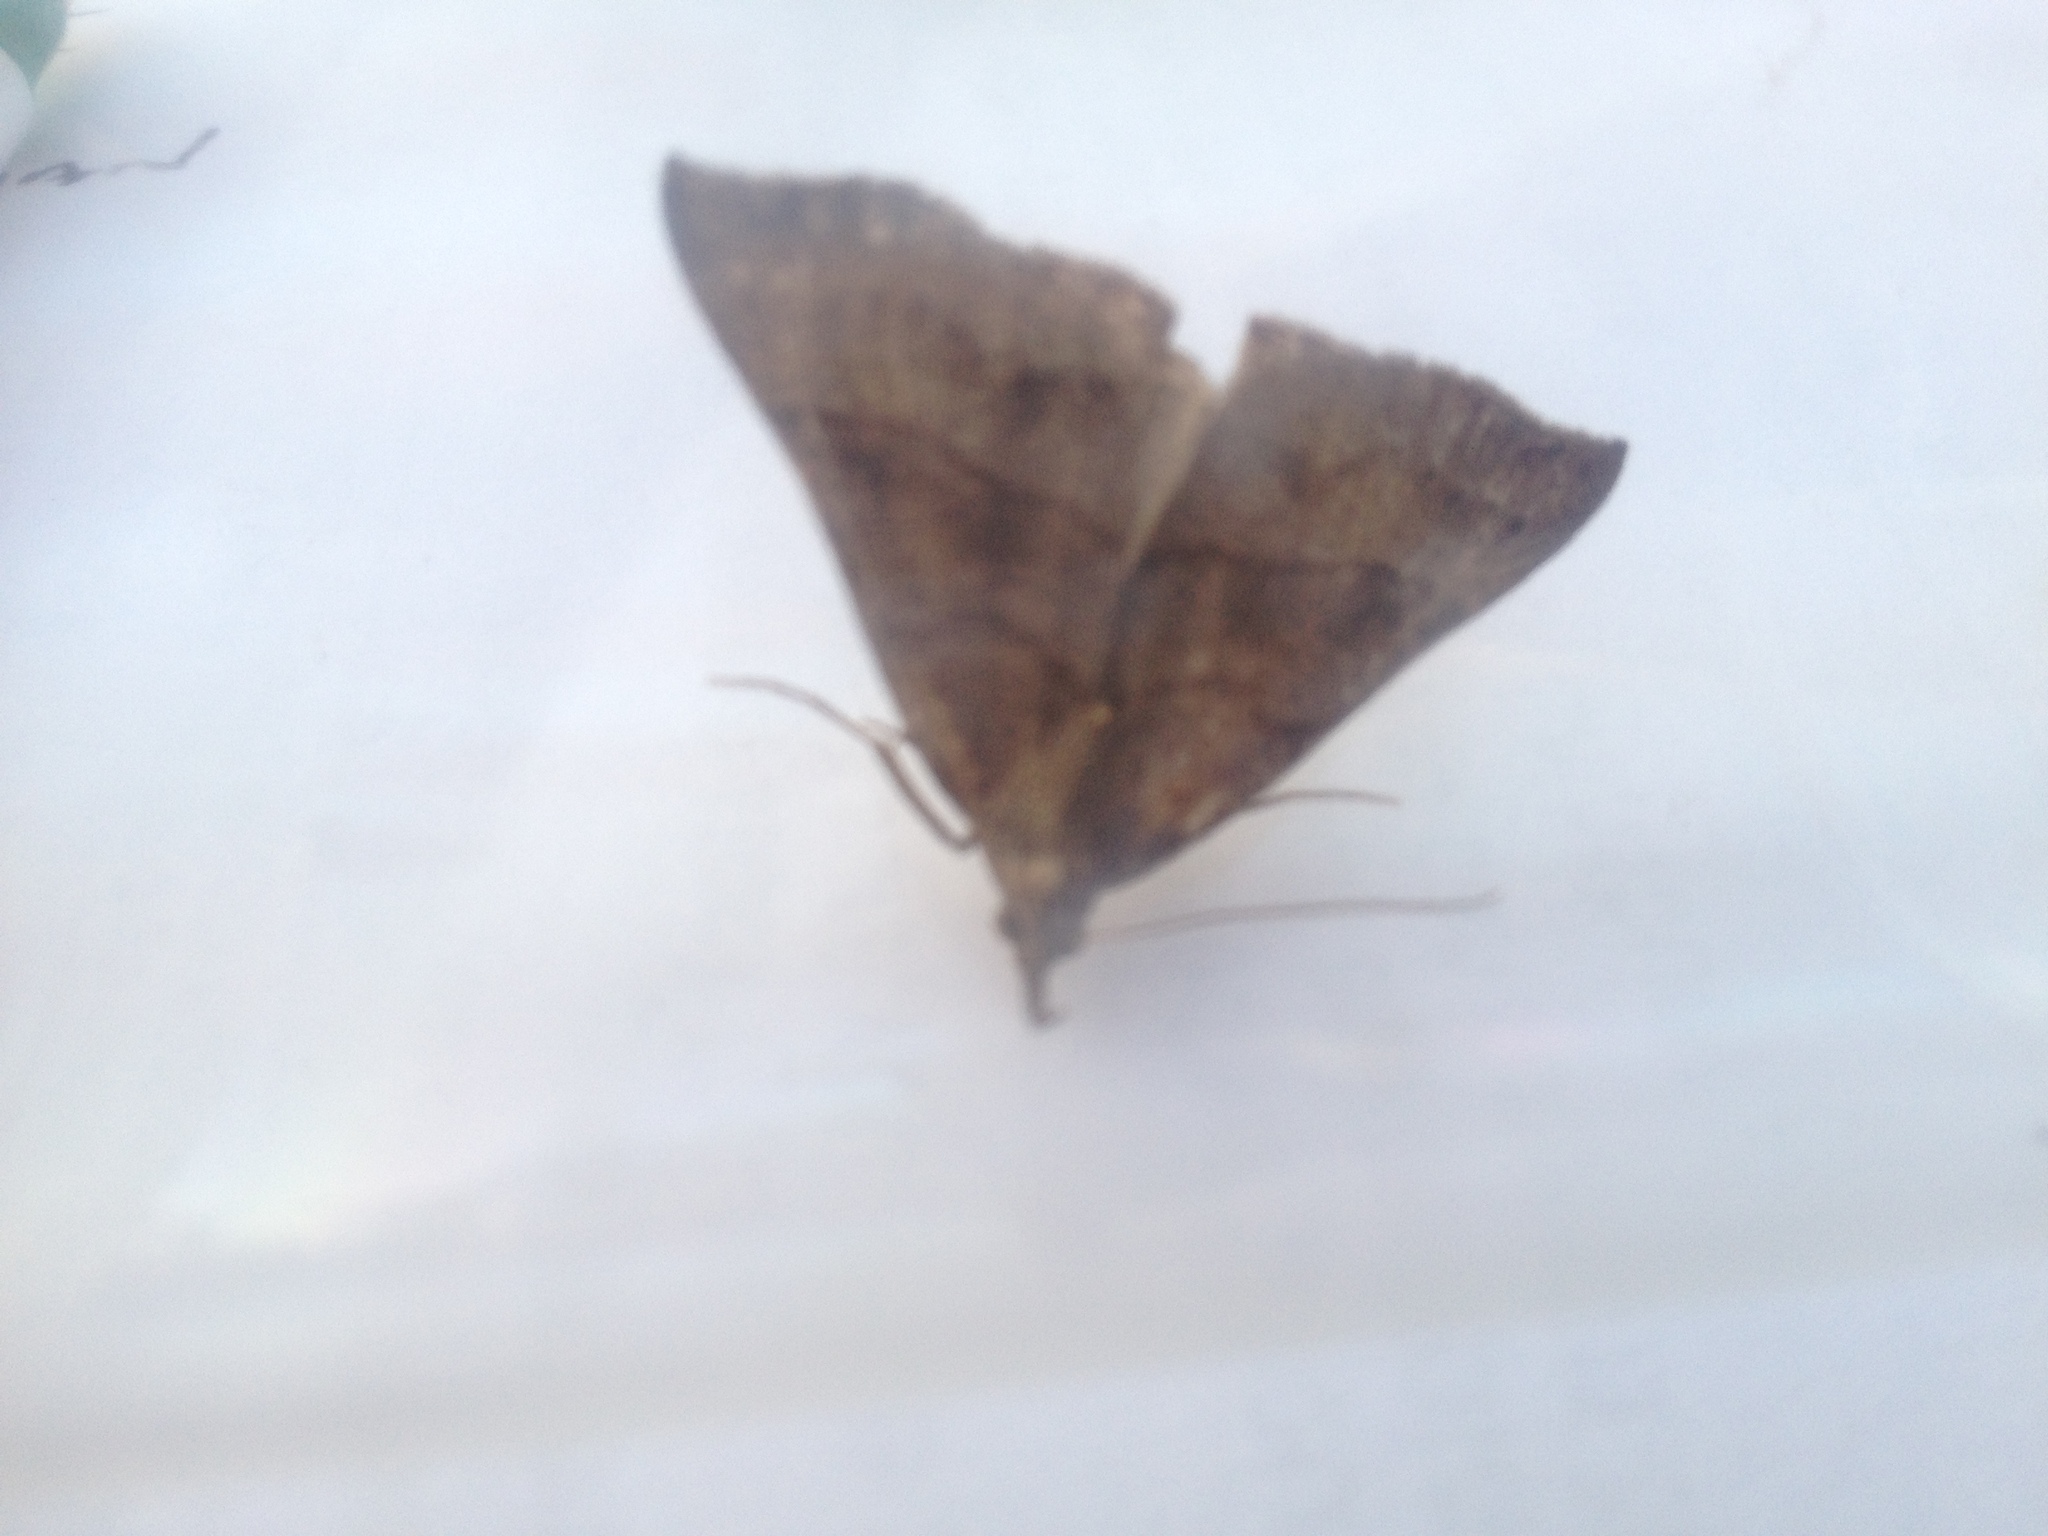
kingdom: Animalia
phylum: Arthropoda
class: Insecta
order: Lepidoptera
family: Erebidae
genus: Hypena
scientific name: Hypena proboscidalis
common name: Snout
